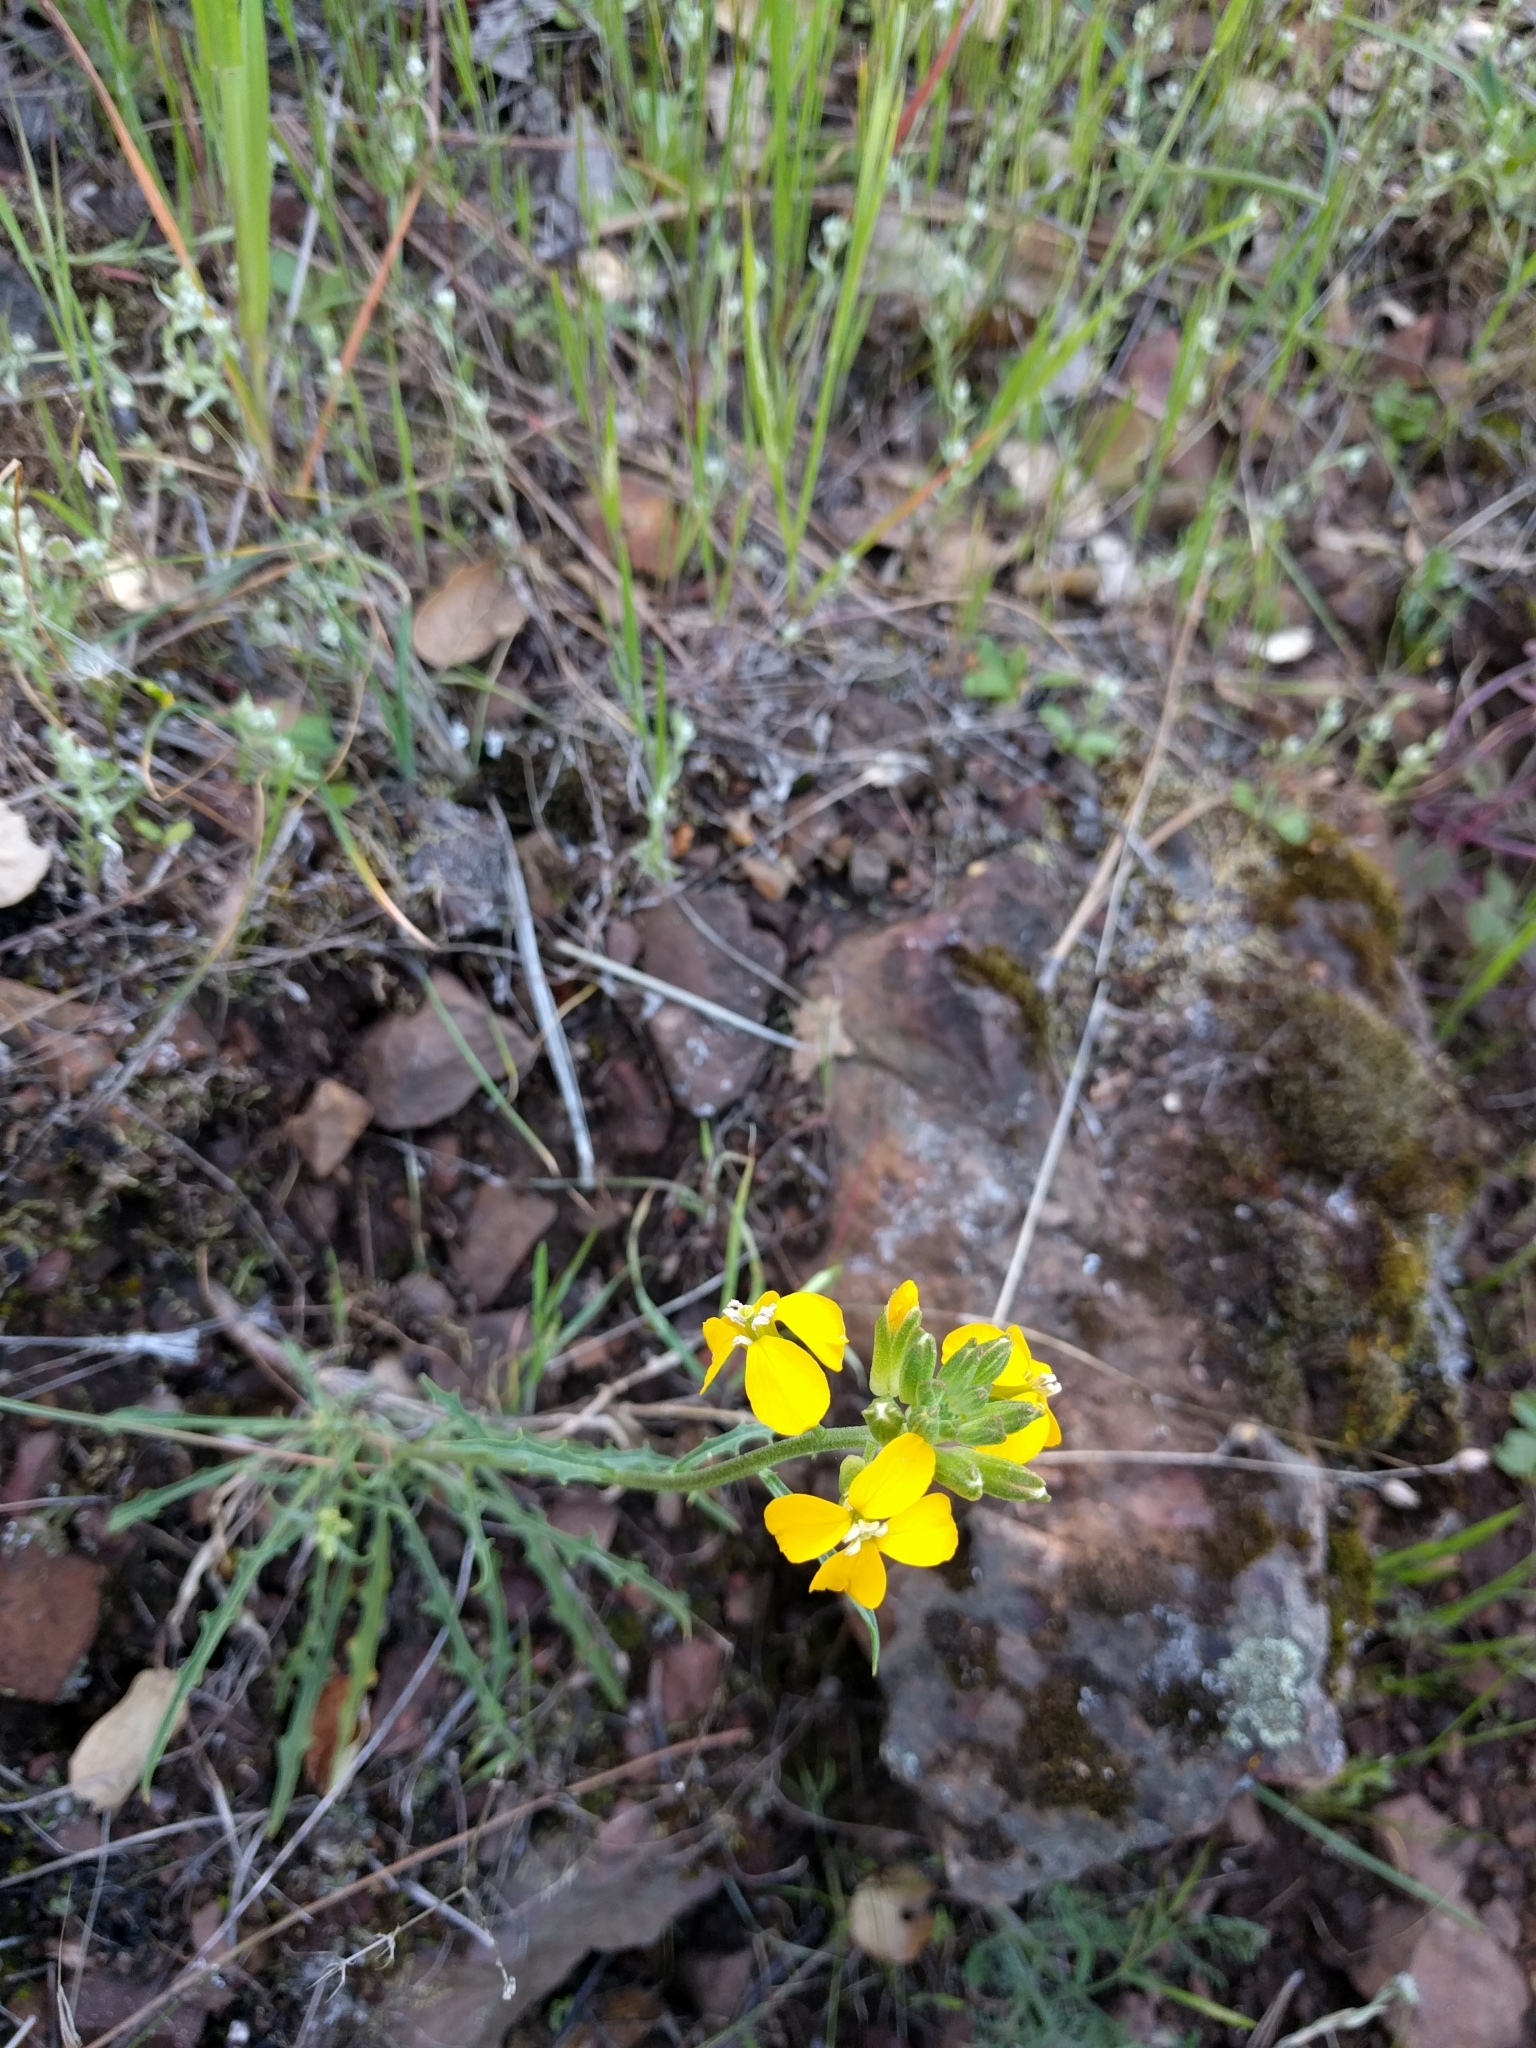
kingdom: Plantae
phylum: Tracheophyta
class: Magnoliopsida
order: Brassicales
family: Brassicaceae
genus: Erysimum
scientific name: Erysimum capitatum
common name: Western wallflower
